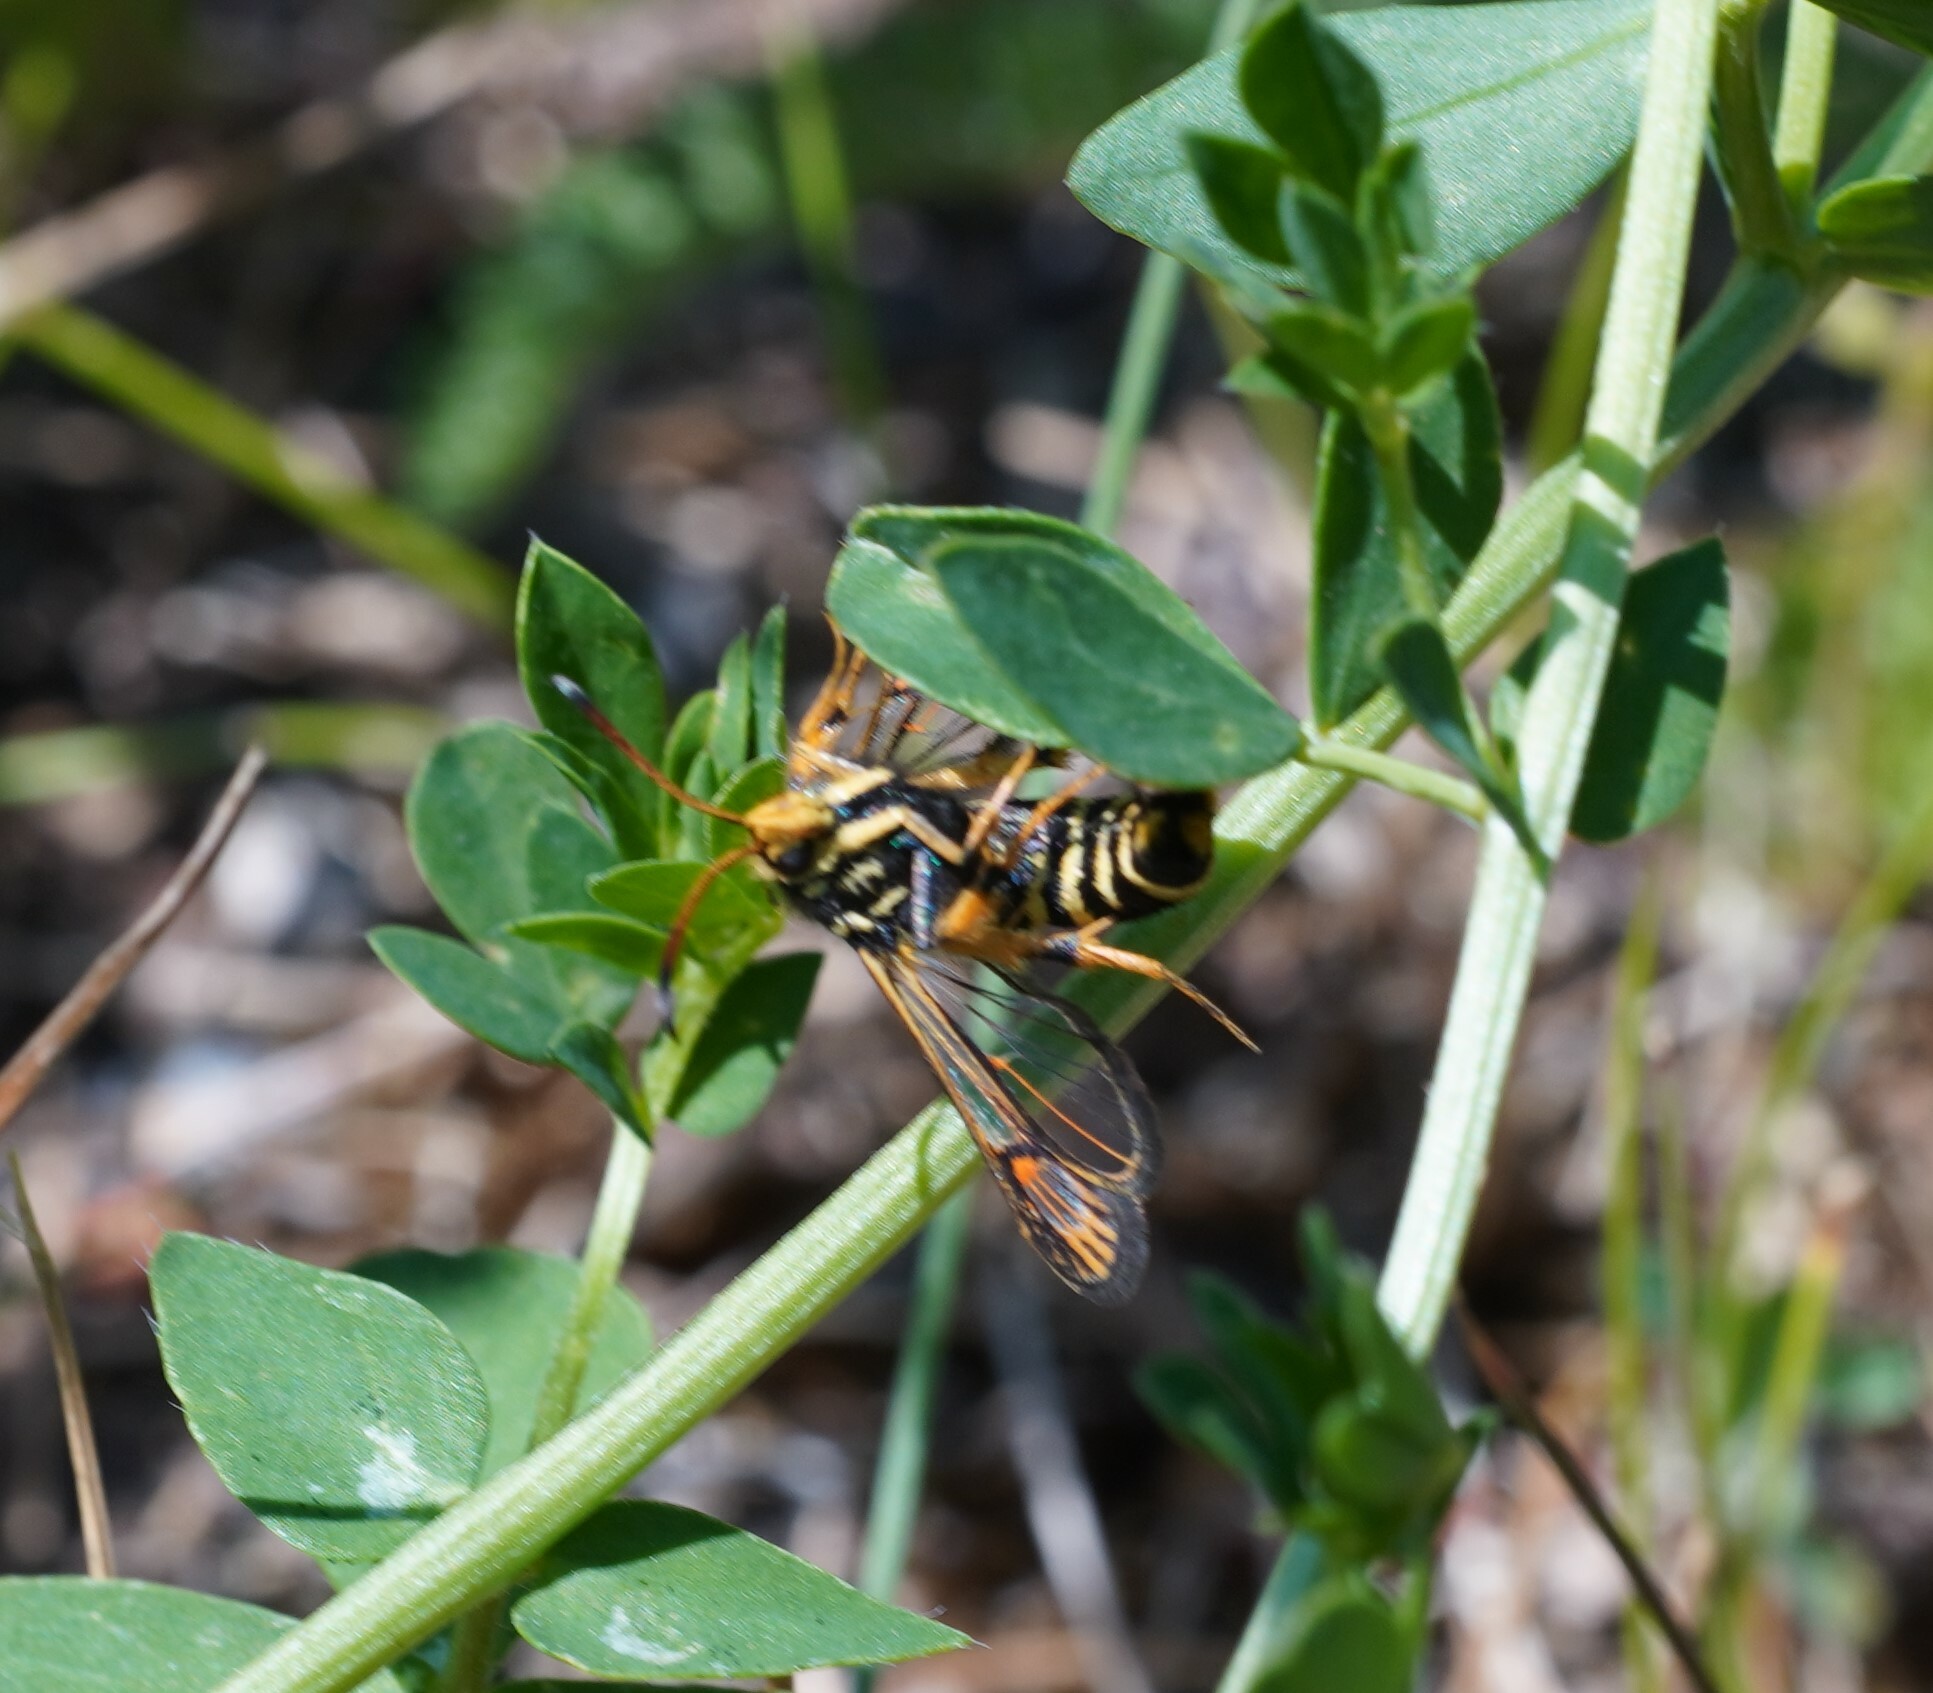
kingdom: Animalia
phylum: Arthropoda
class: Insecta
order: Lepidoptera
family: Sesiidae
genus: Bembecia
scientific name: Bembecia ichneumoniformis
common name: Six-belted clearwing
